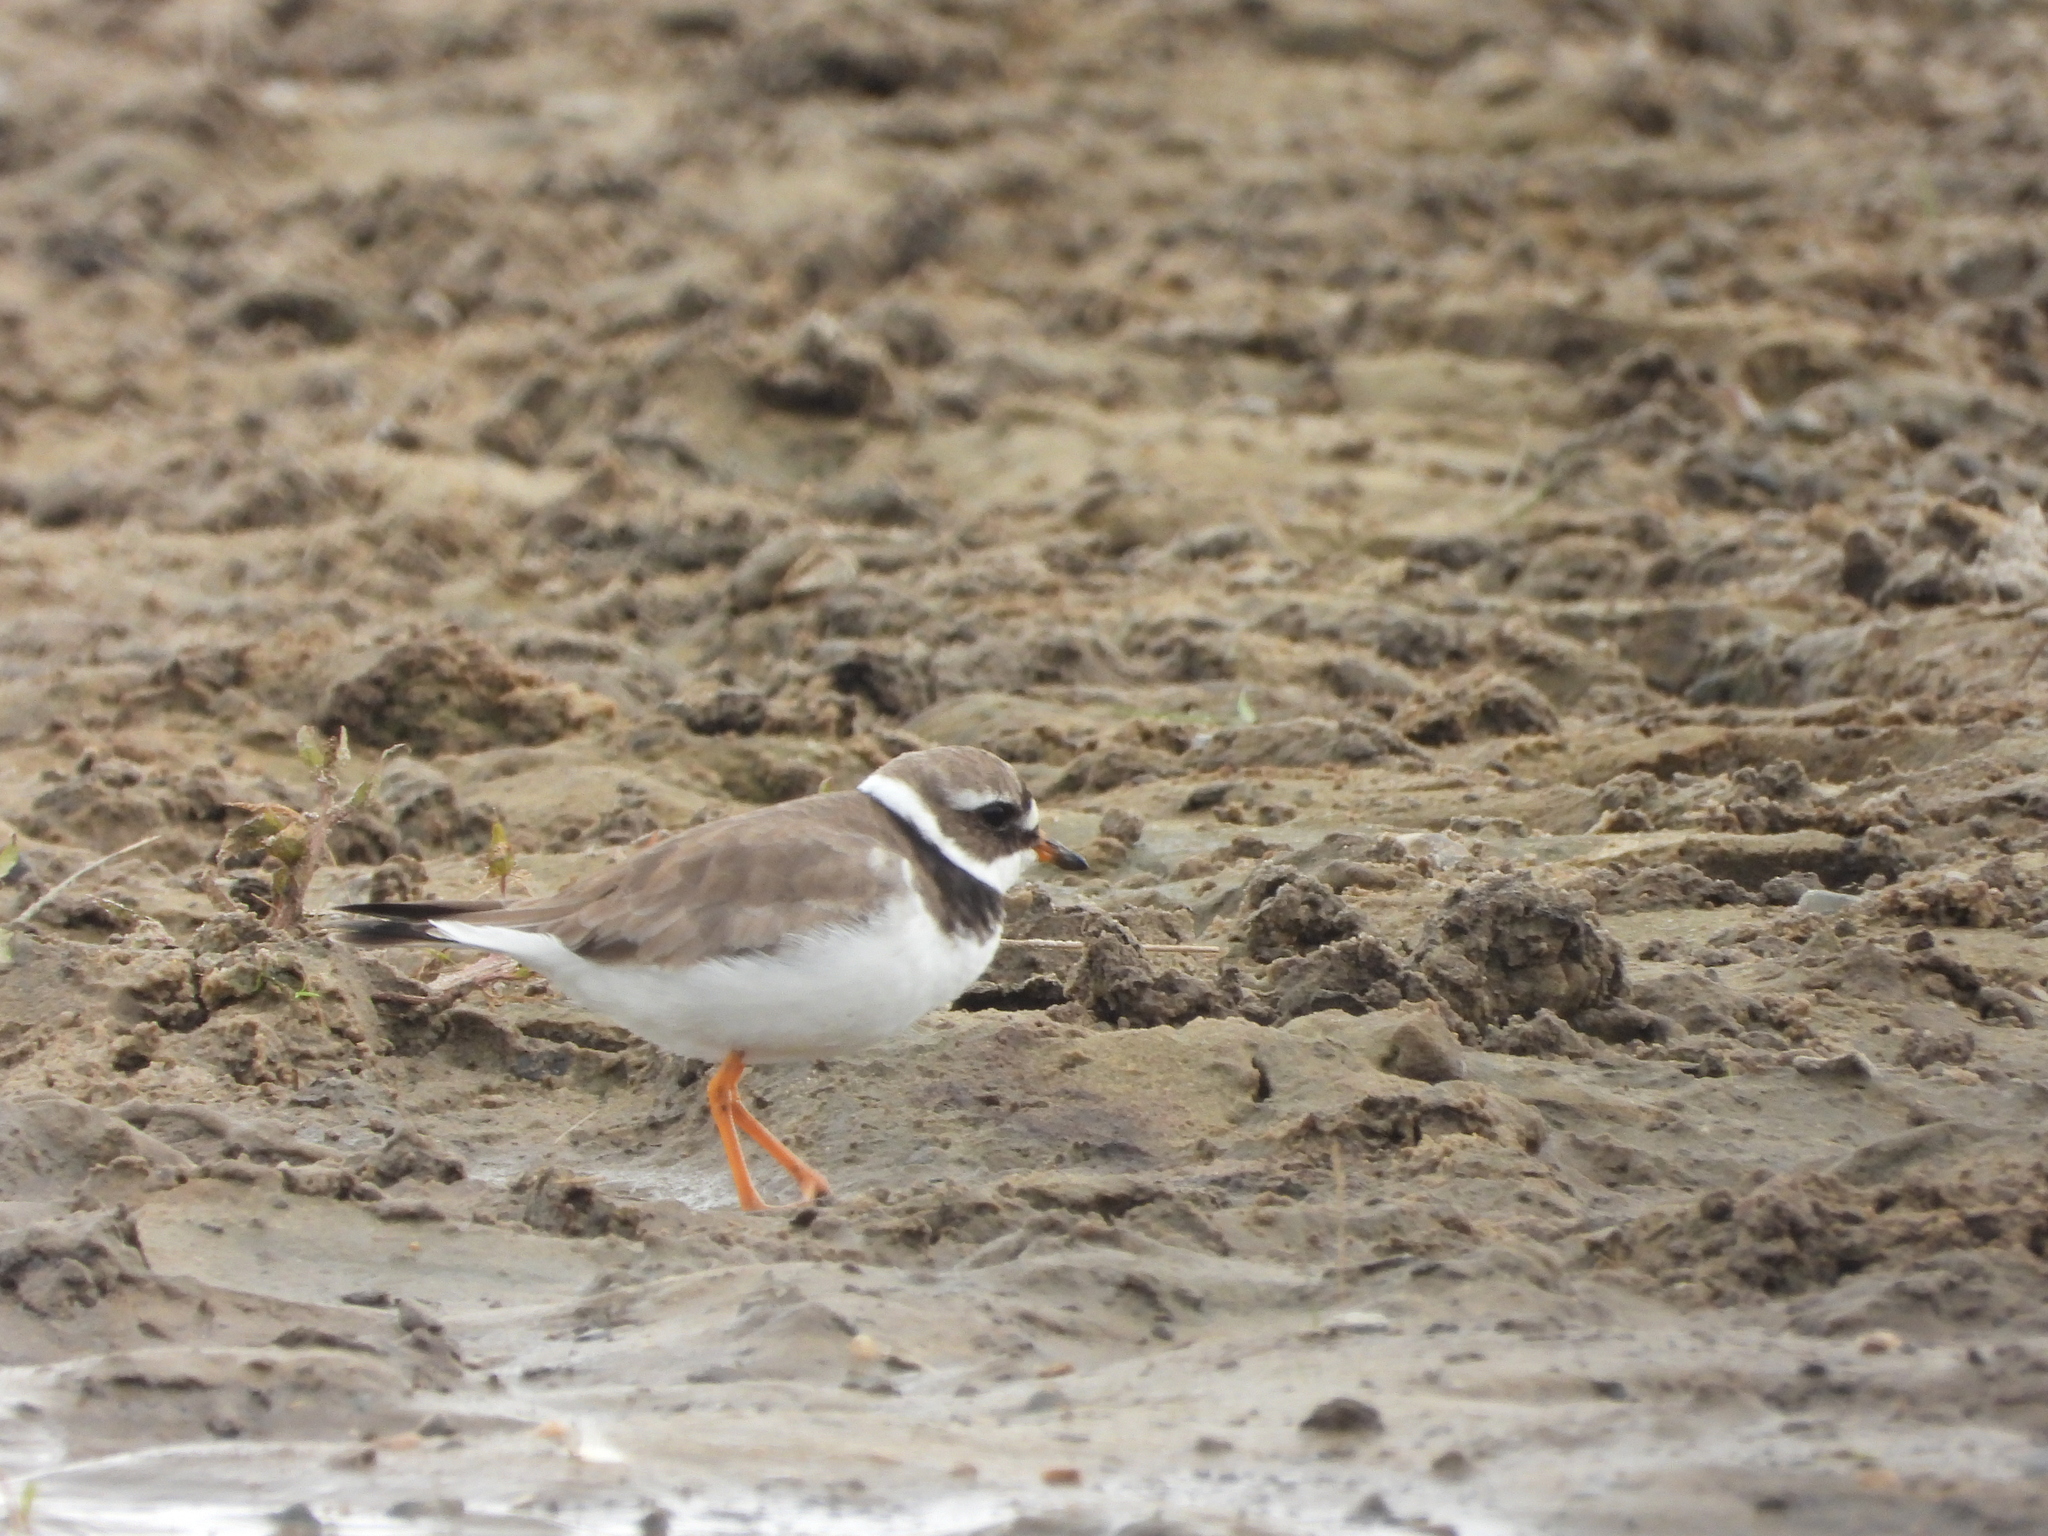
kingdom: Animalia
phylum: Chordata
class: Aves
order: Charadriiformes
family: Charadriidae
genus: Charadrius
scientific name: Charadrius hiaticula
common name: Common ringed plover
